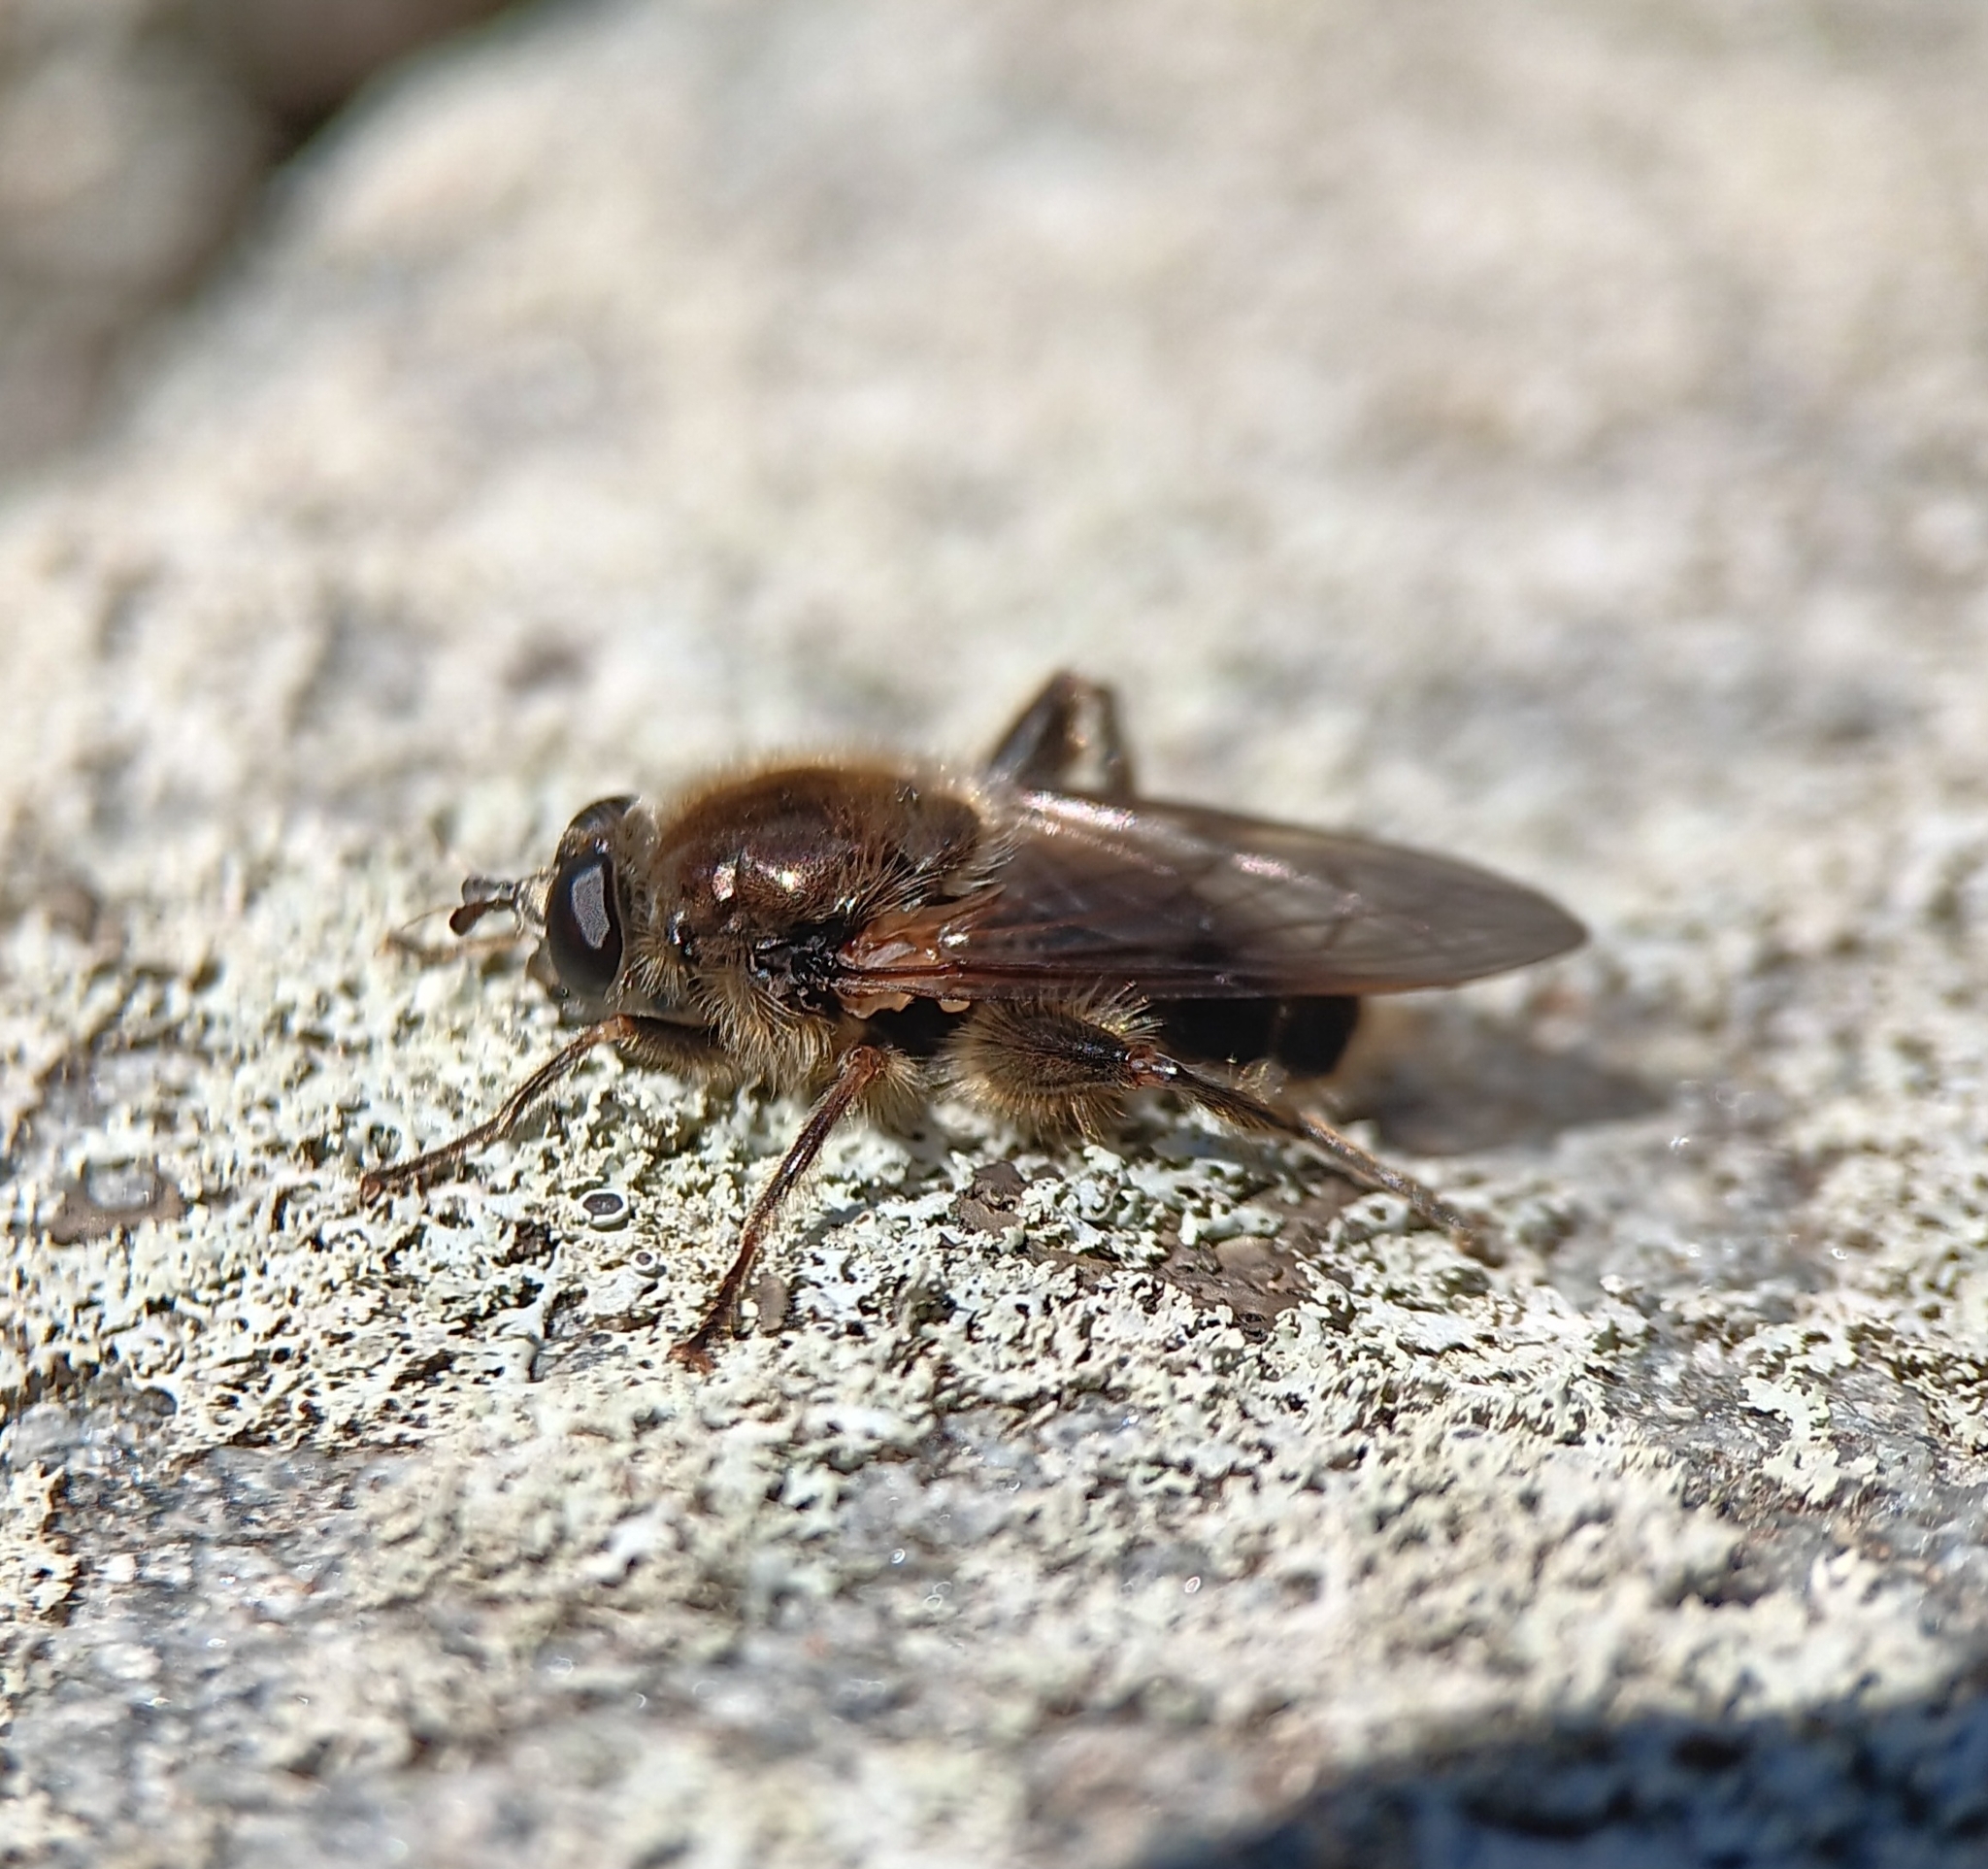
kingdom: Animalia
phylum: Arthropoda
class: Insecta
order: Diptera
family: Syrphidae
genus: Brachypalpus
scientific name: Brachypalpus oarus
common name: Eastern catkin fly
